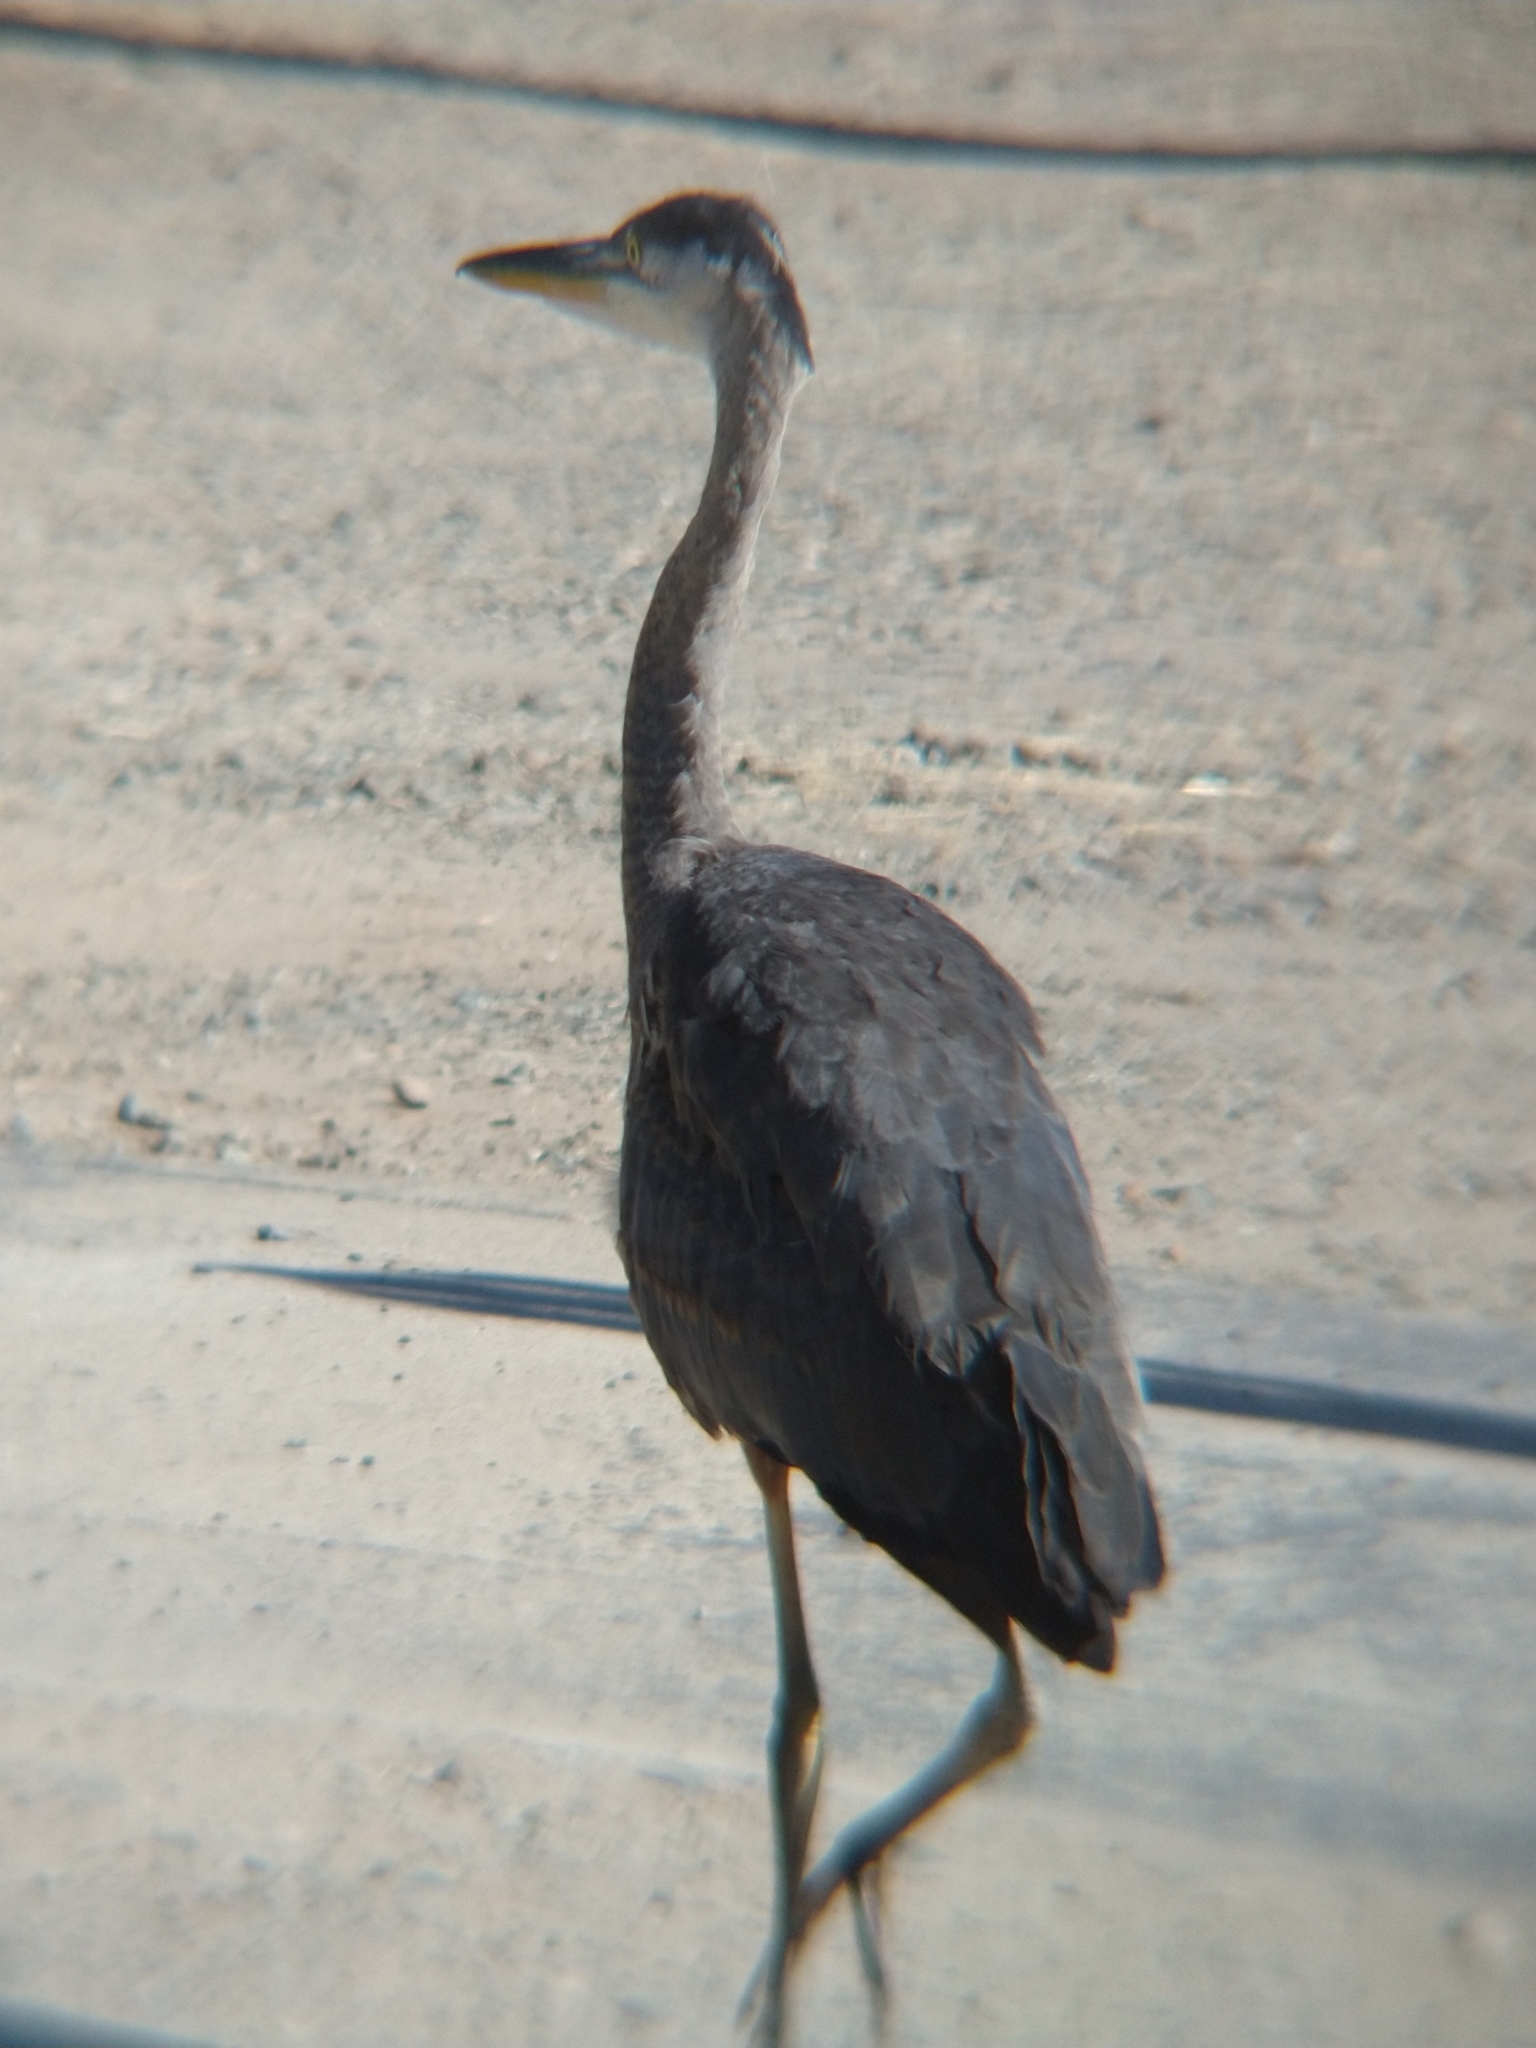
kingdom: Animalia
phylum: Chordata
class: Aves
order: Pelecaniformes
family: Ardeidae
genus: Ardea
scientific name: Ardea herodias
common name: Great blue heron
